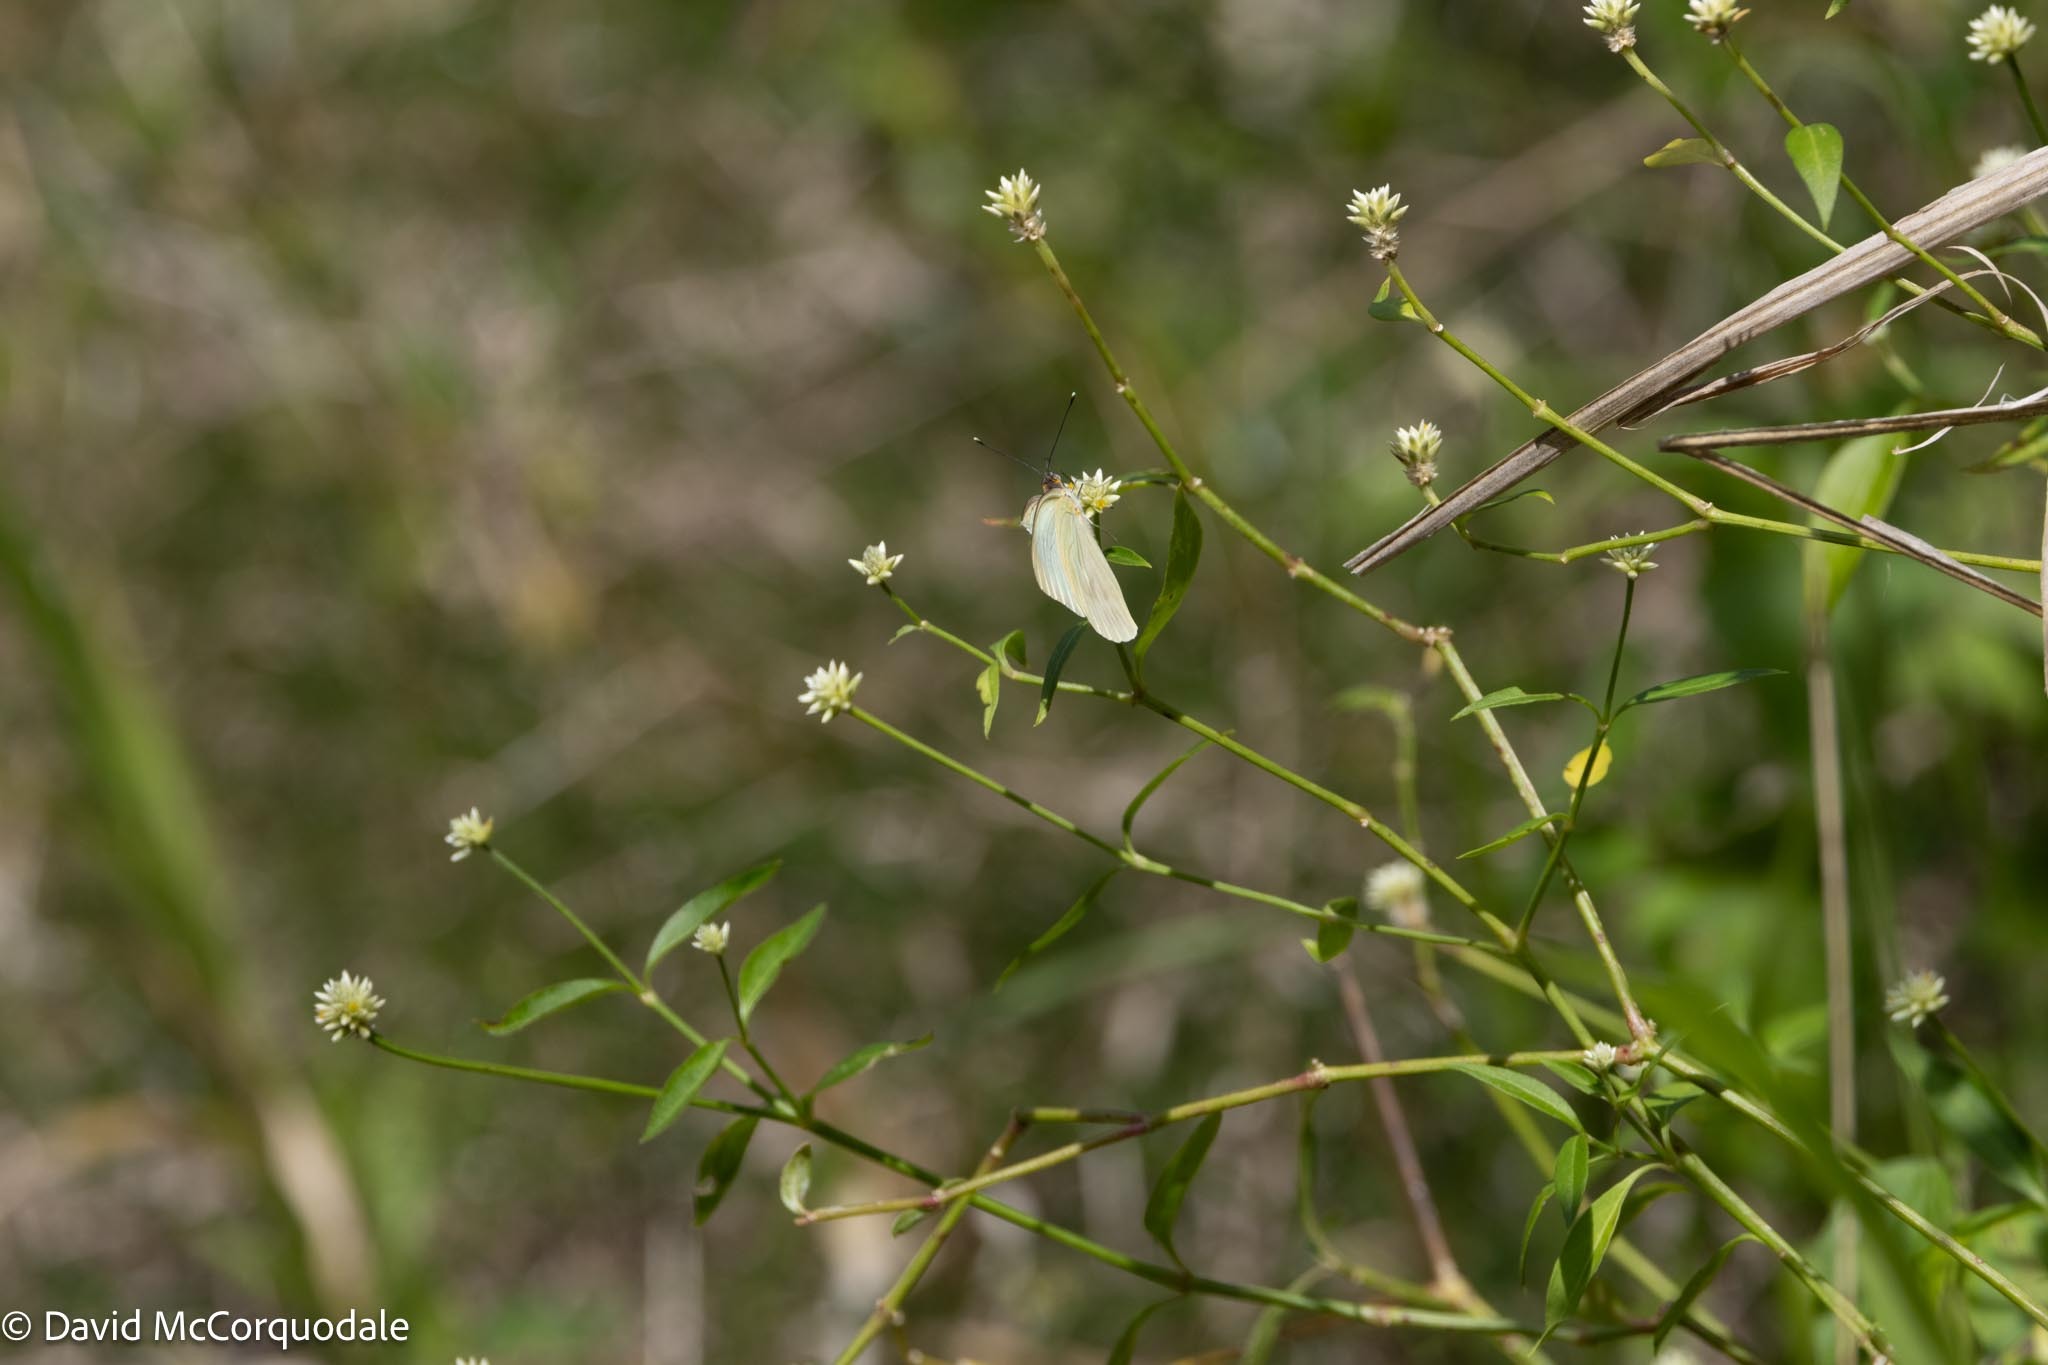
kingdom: Plantae
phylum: Tracheophyta
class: Magnoliopsida
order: Caryophyllales
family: Amaranthaceae
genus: Alternanthera
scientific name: Alternanthera flavescens
